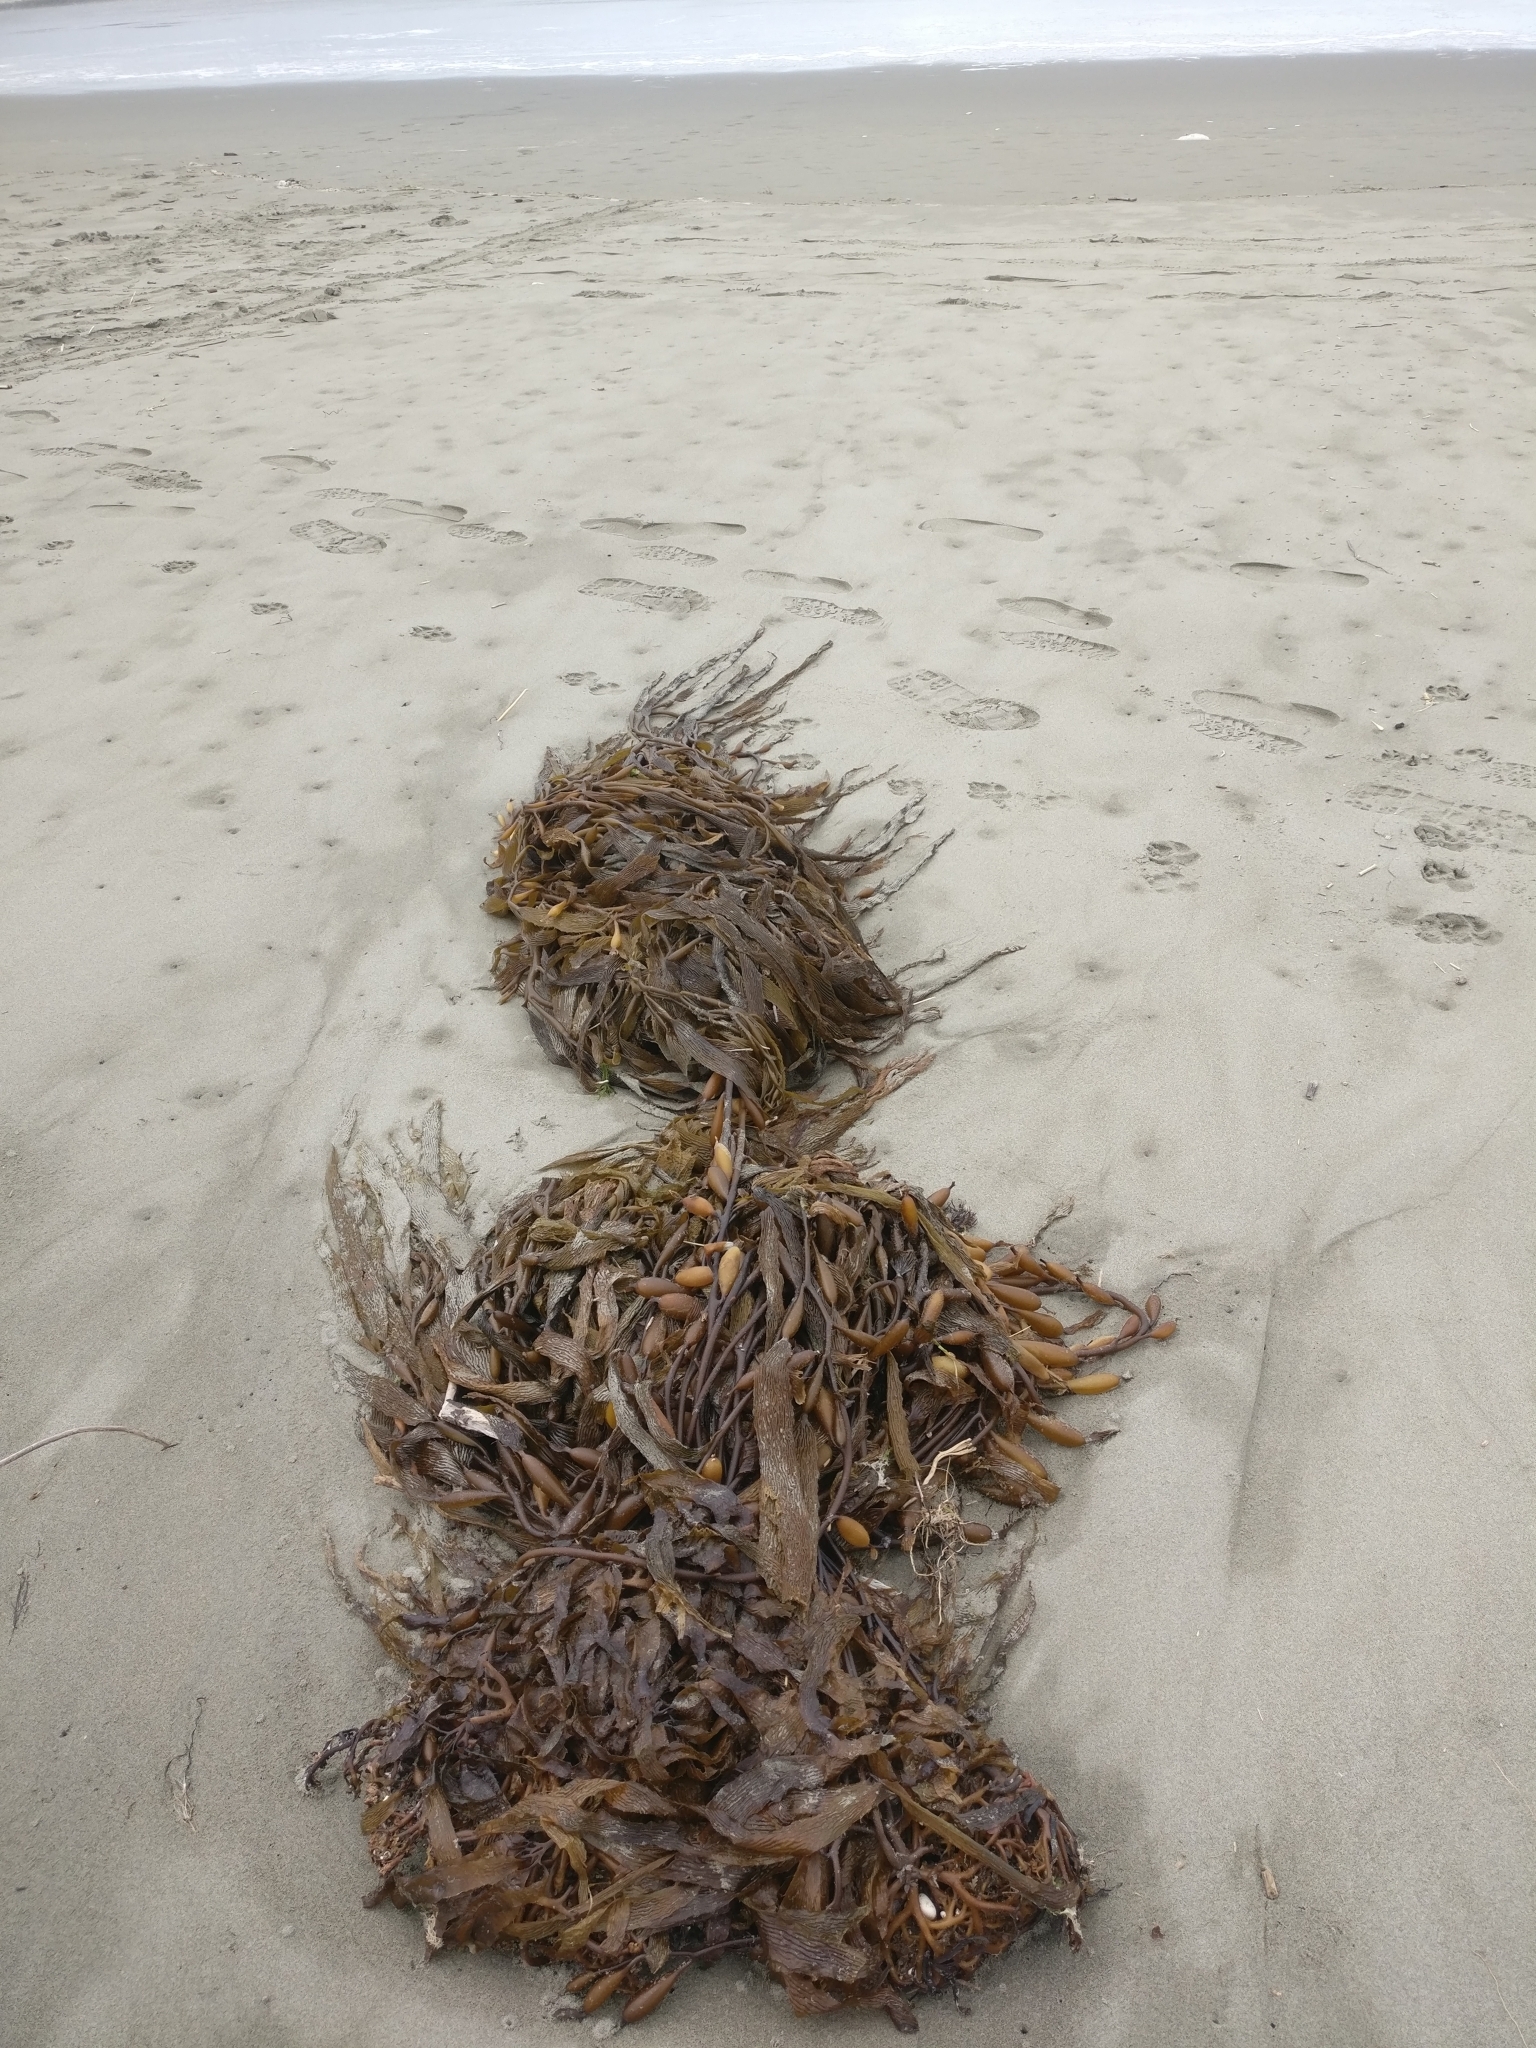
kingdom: Chromista
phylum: Ochrophyta
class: Phaeophyceae
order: Laminariales
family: Laminariaceae
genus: Macrocystis
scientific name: Macrocystis pyrifera
